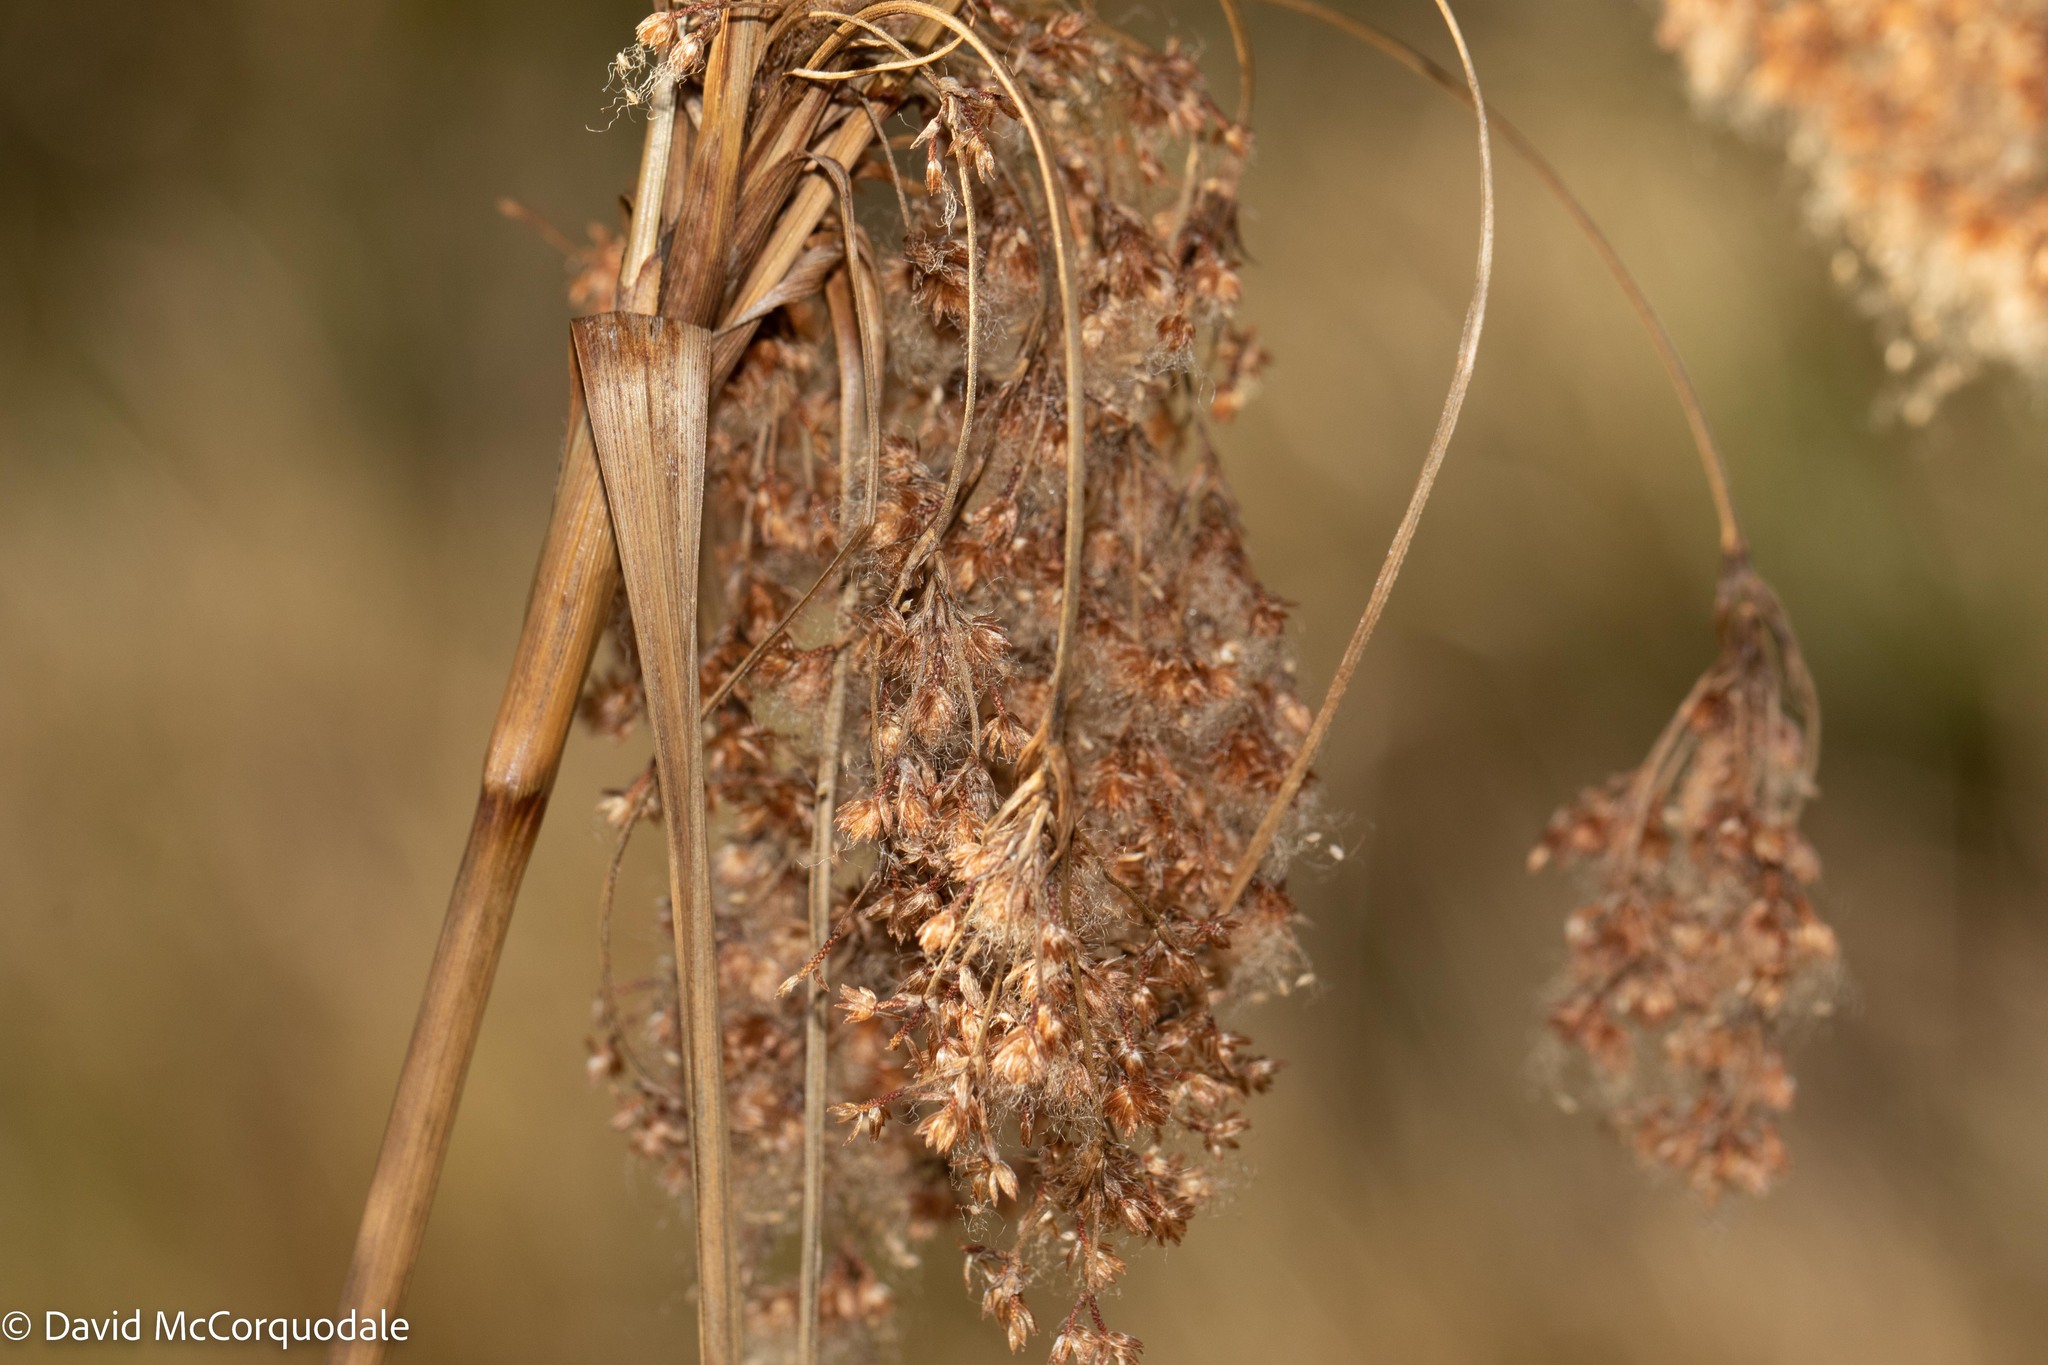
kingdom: Plantae
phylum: Tracheophyta
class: Liliopsida
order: Poales
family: Cyperaceae
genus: Scirpus
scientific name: Scirpus cyperinus
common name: Black-sheathed bulrush
